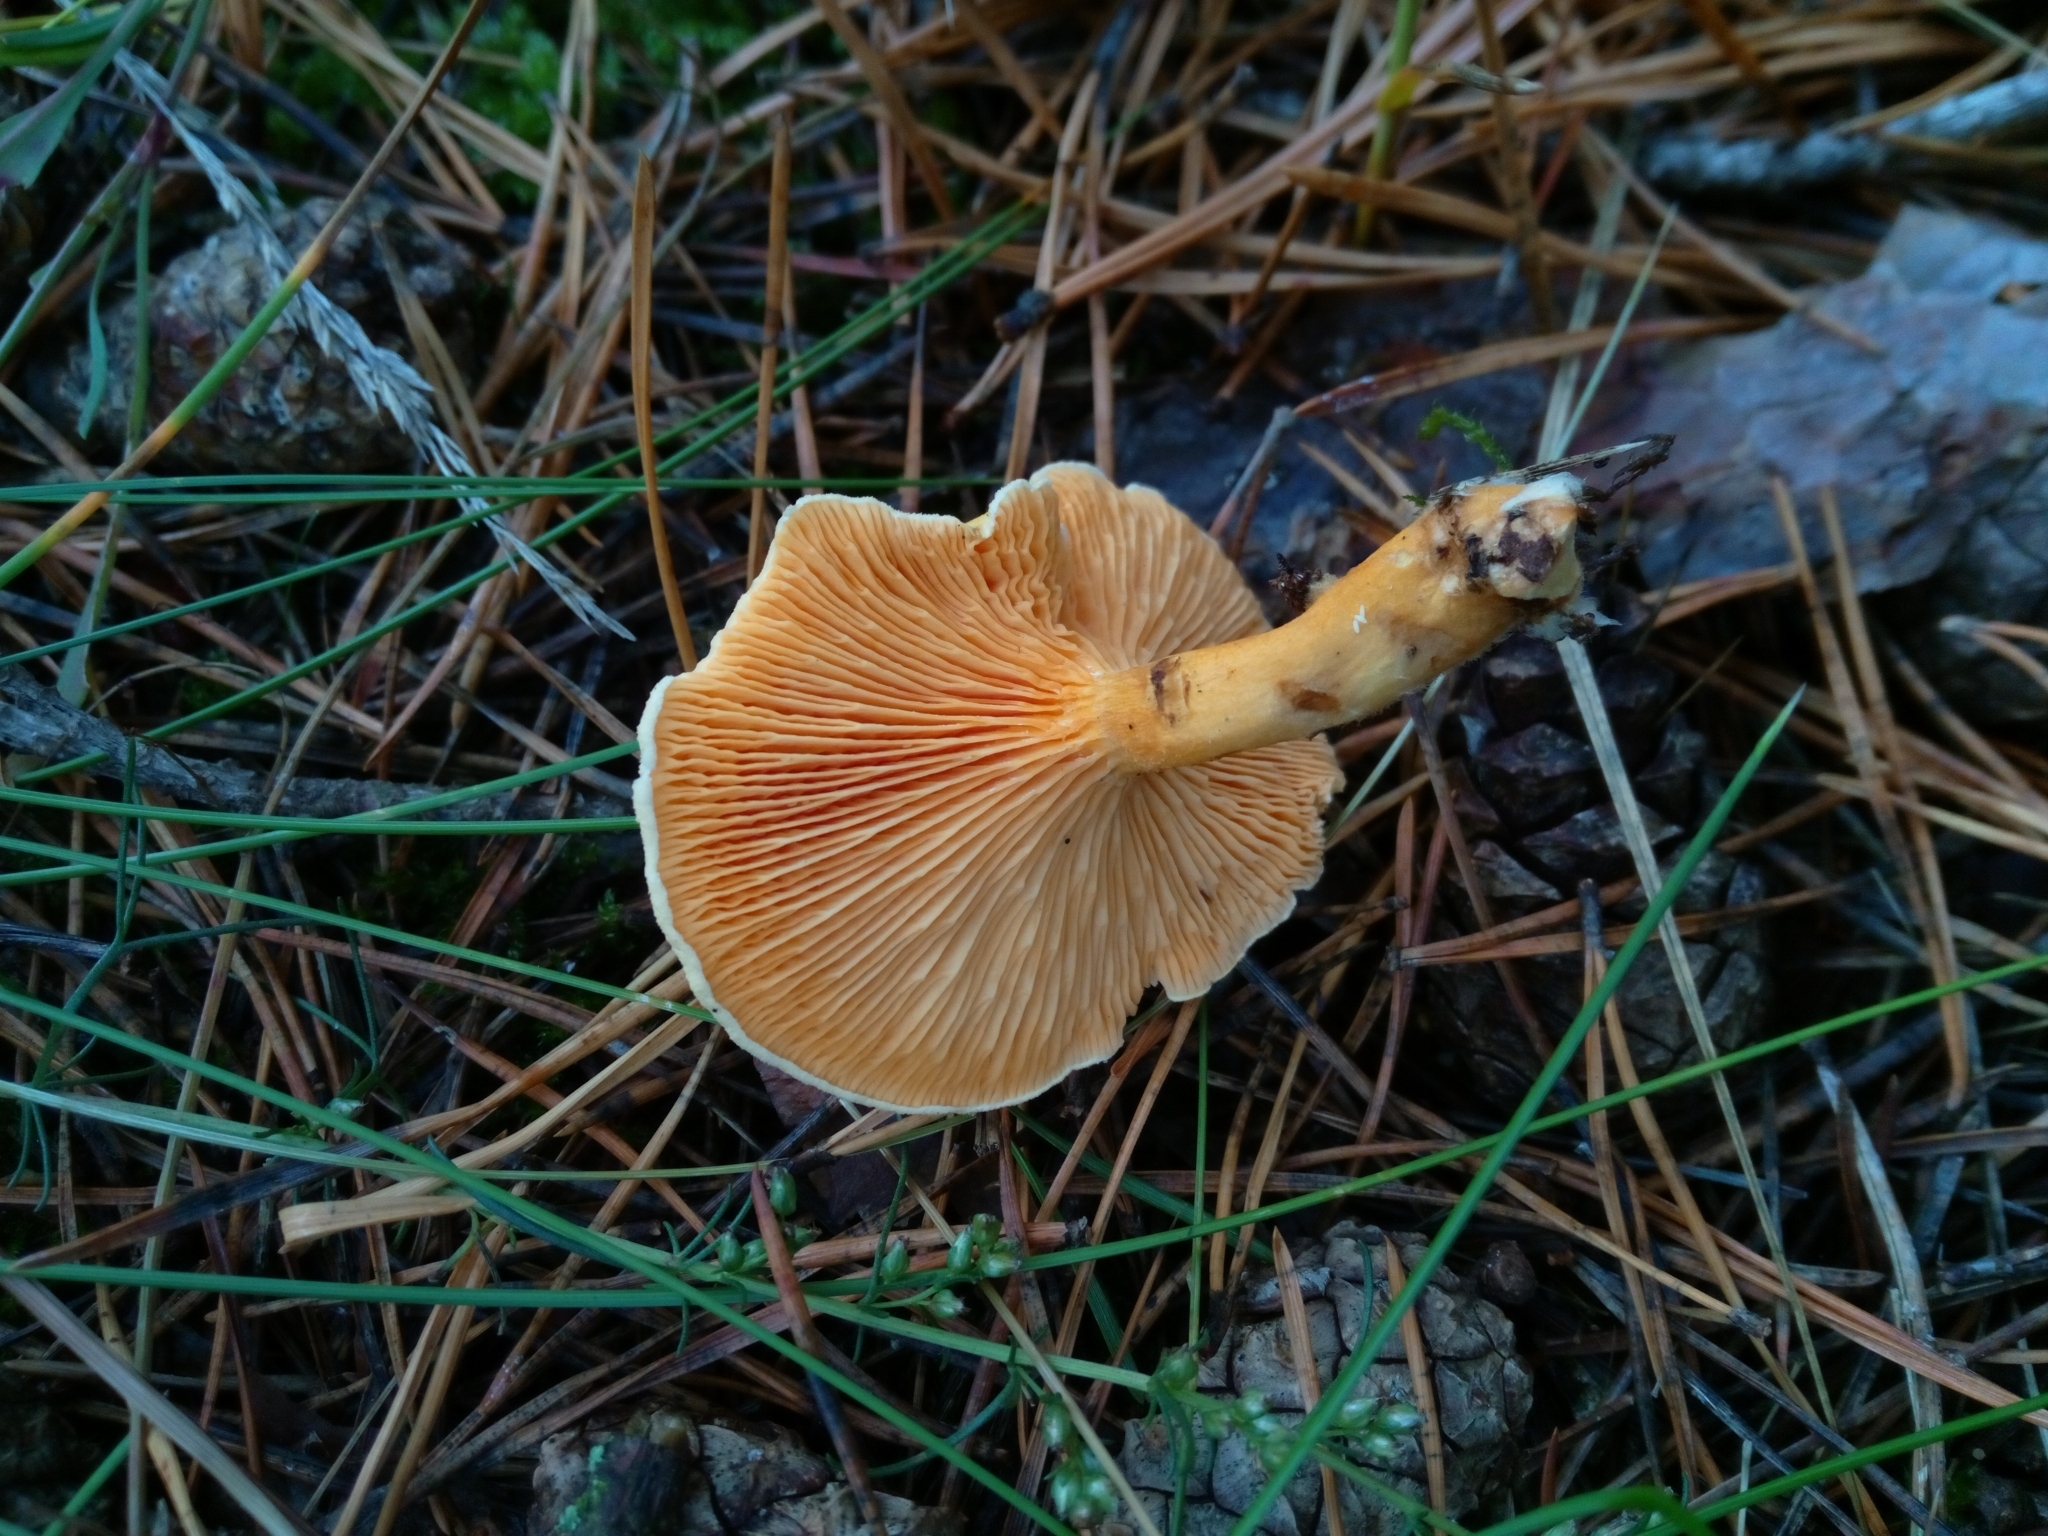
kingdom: Fungi
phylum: Basidiomycota
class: Agaricomycetes
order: Boletales
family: Hygrophoropsidaceae
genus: Hygrophoropsis
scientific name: Hygrophoropsis aurantiaca
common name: False chanterelle
